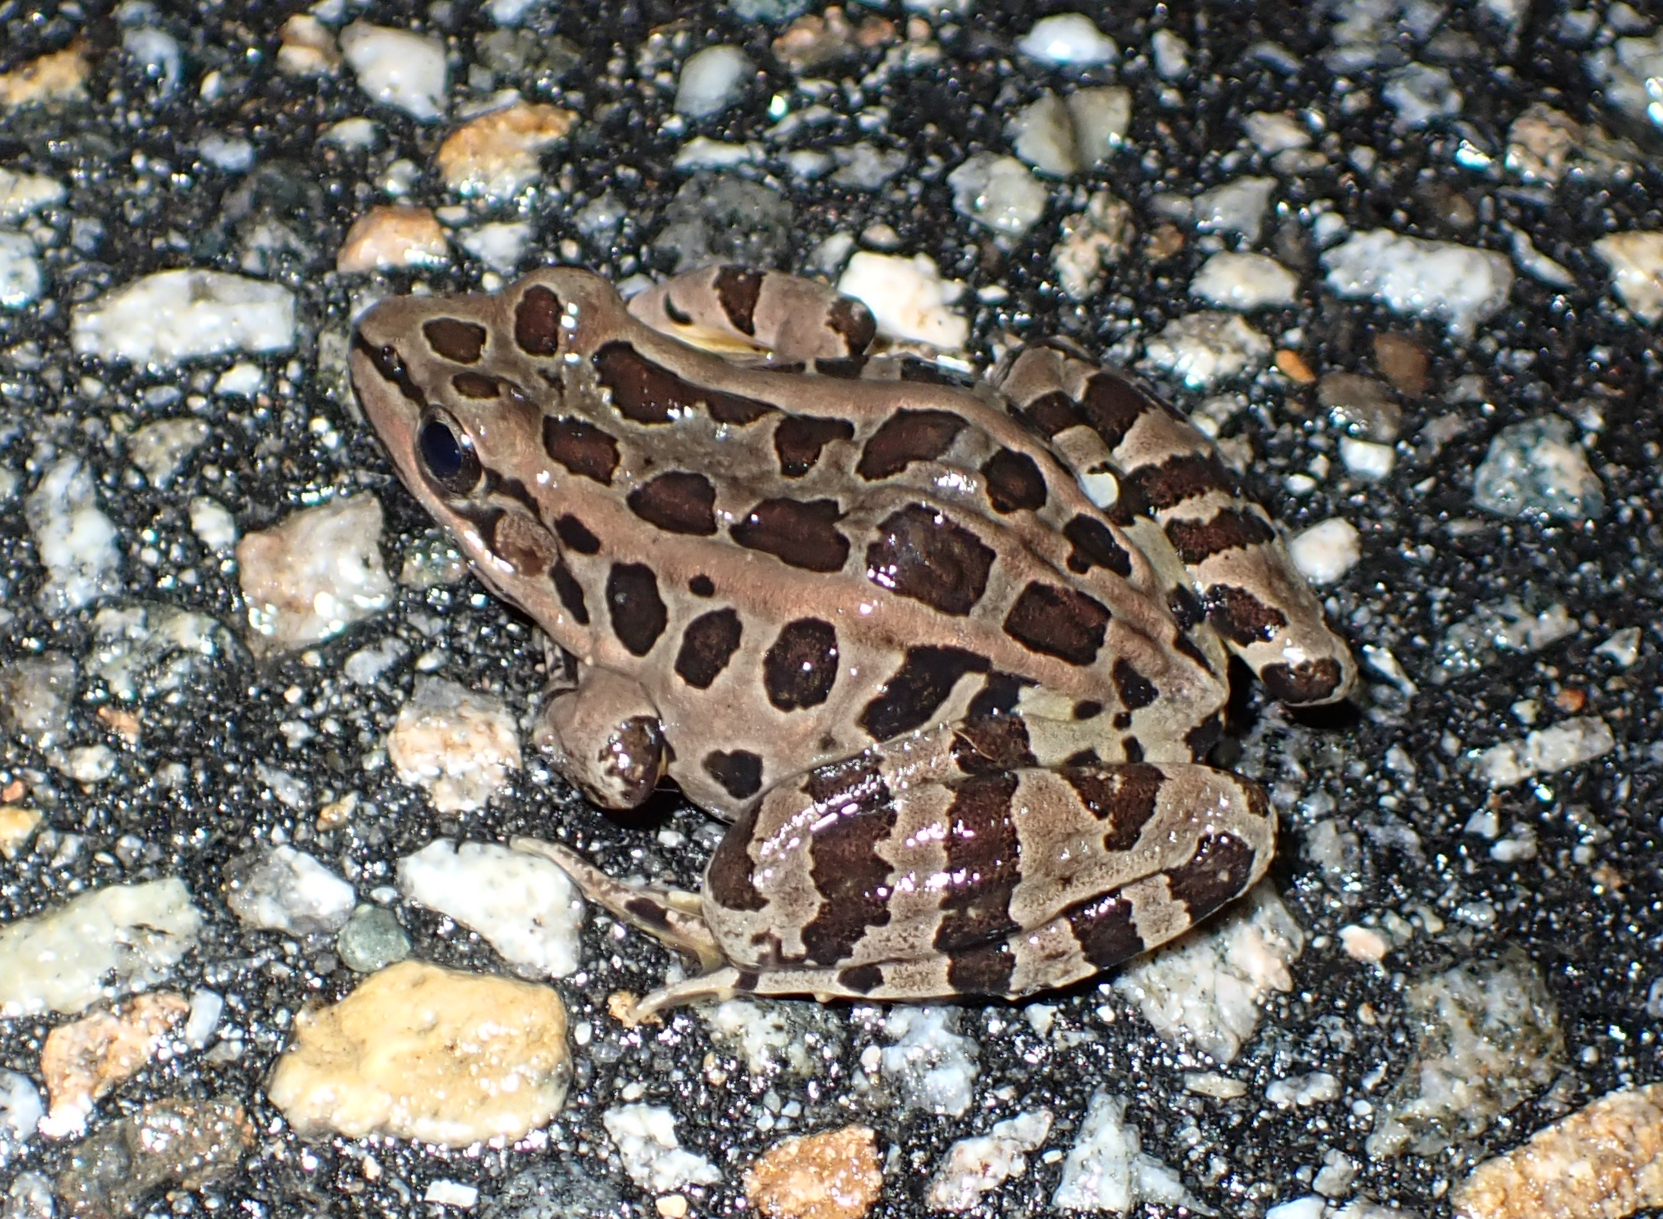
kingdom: Animalia
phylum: Chordata
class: Amphibia
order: Anura
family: Ranidae
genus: Lithobates
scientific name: Lithobates palustris
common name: Pickerel frog
